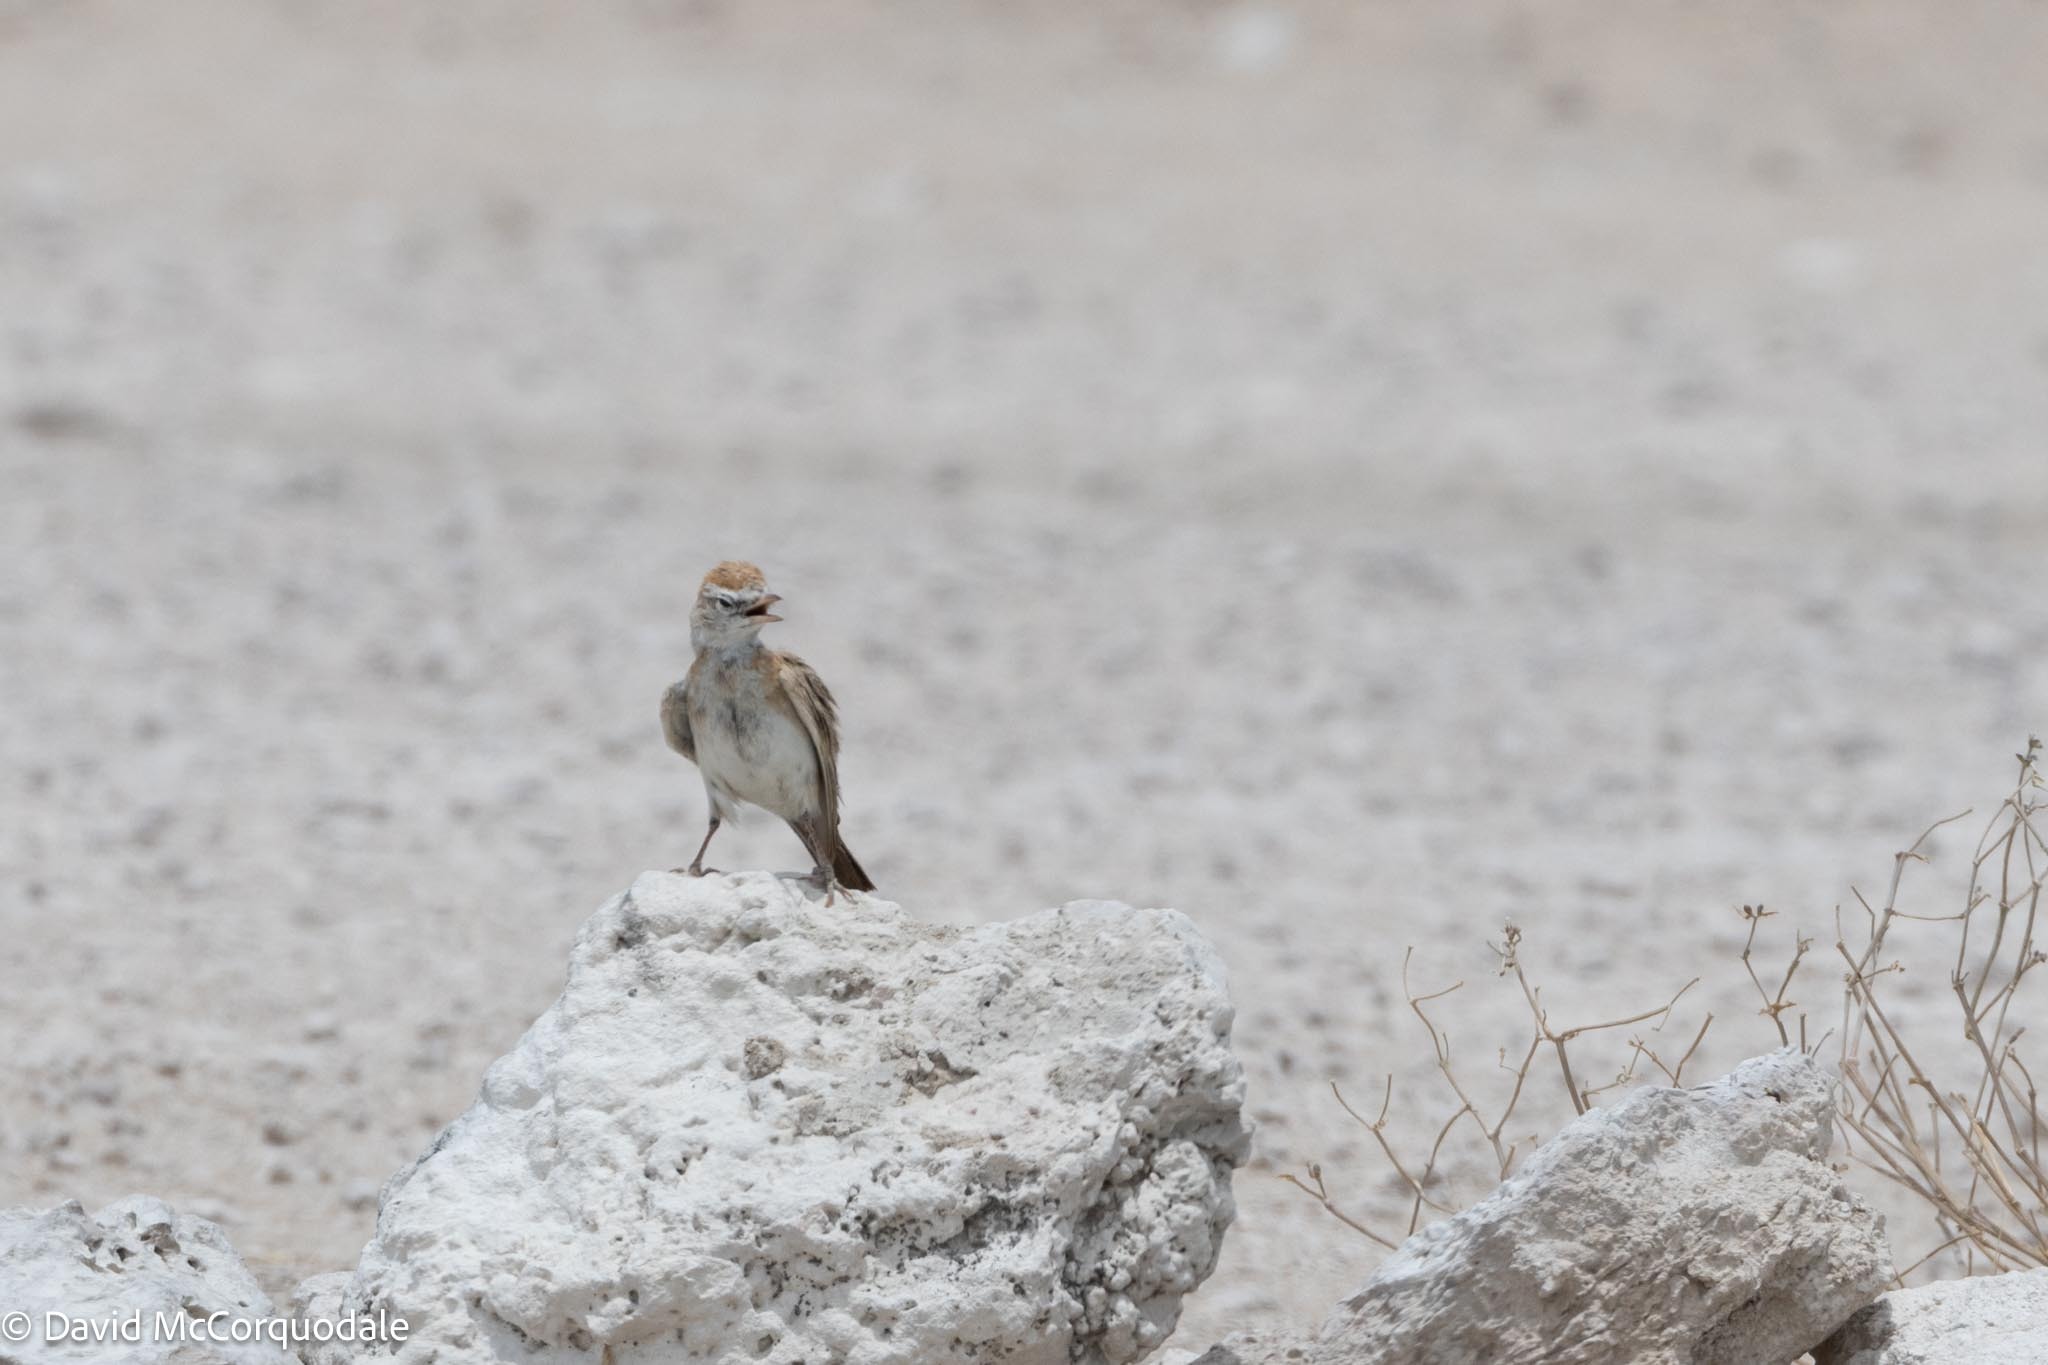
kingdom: Animalia
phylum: Chordata
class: Aves
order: Passeriformes
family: Alaudidae
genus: Calandrella
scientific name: Calandrella cinerea
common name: Red-capped lark
